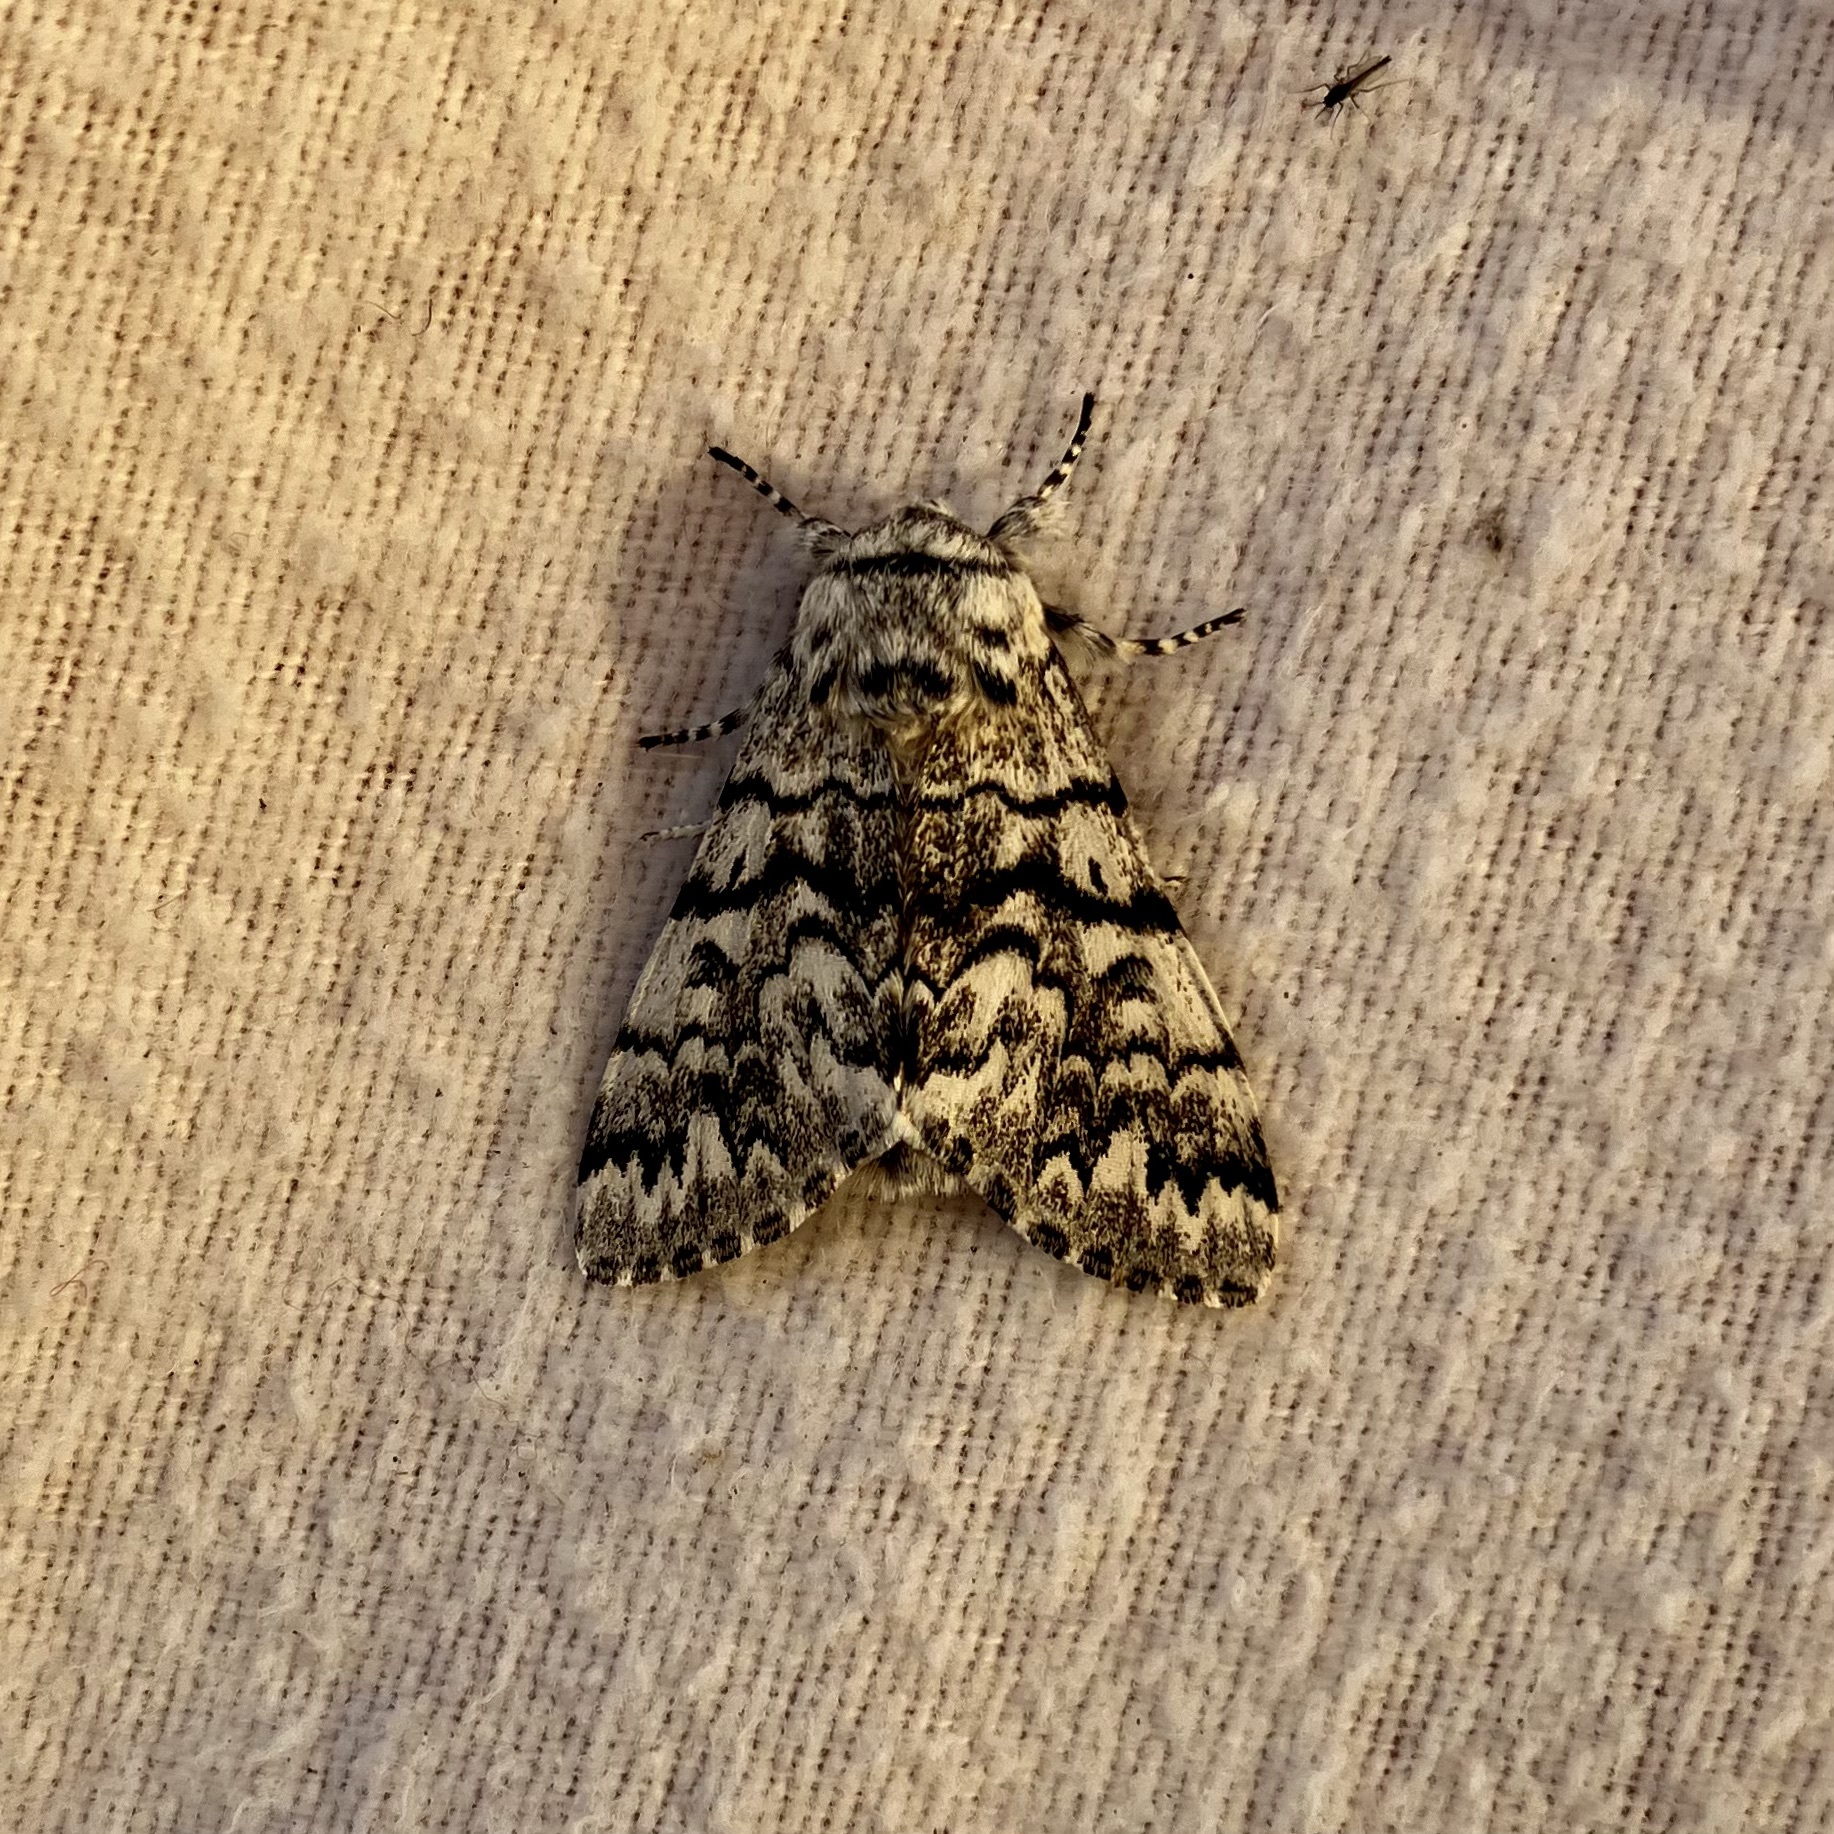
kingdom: Animalia
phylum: Arthropoda
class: Insecta
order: Lepidoptera
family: Noctuidae
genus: Panthea
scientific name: Panthea virginarius
